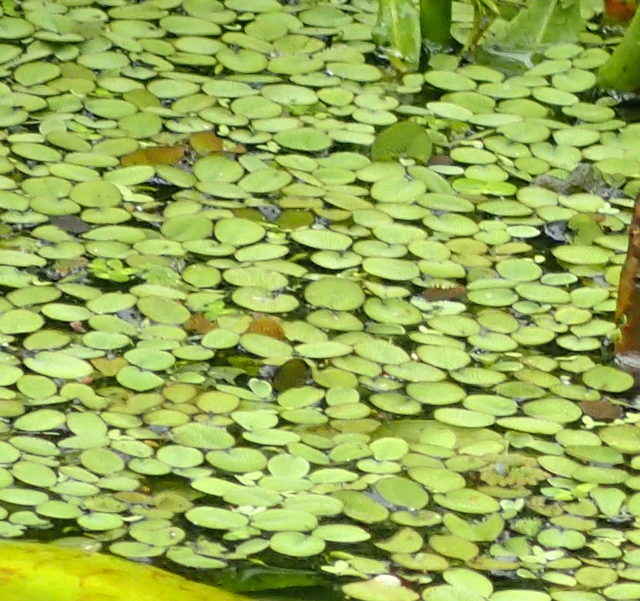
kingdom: Plantae
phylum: Tracheophyta
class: Polypodiopsida
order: Salviniales
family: Salviniaceae
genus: Salvinia
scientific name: Salvinia minima
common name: Water spangles
